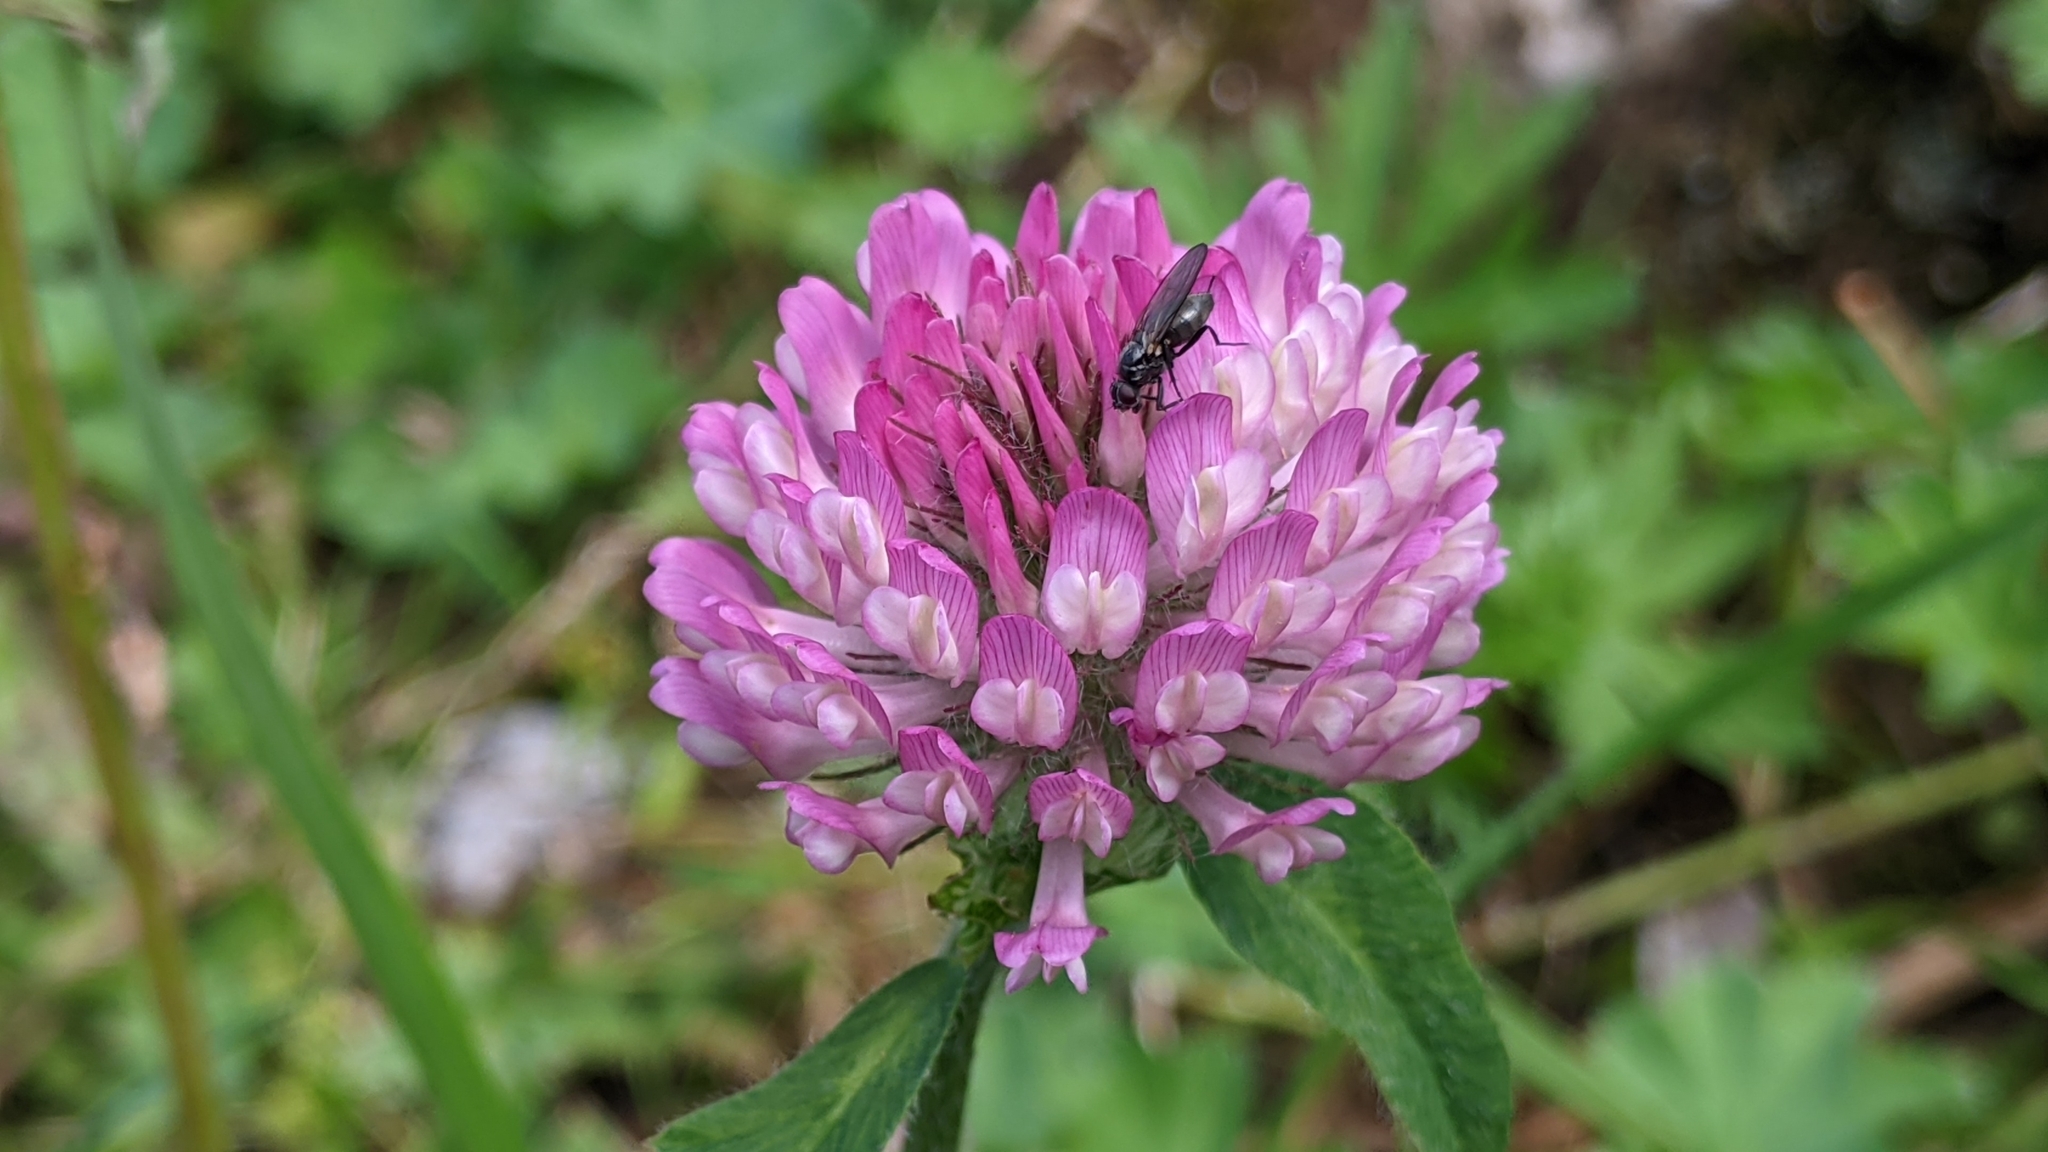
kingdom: Plantae
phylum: Tracheophyta
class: Magnoliopsida
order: Fabales
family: Fabaceae
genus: Trifolium
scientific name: Trifolium alpestre
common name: Owl-head clover
